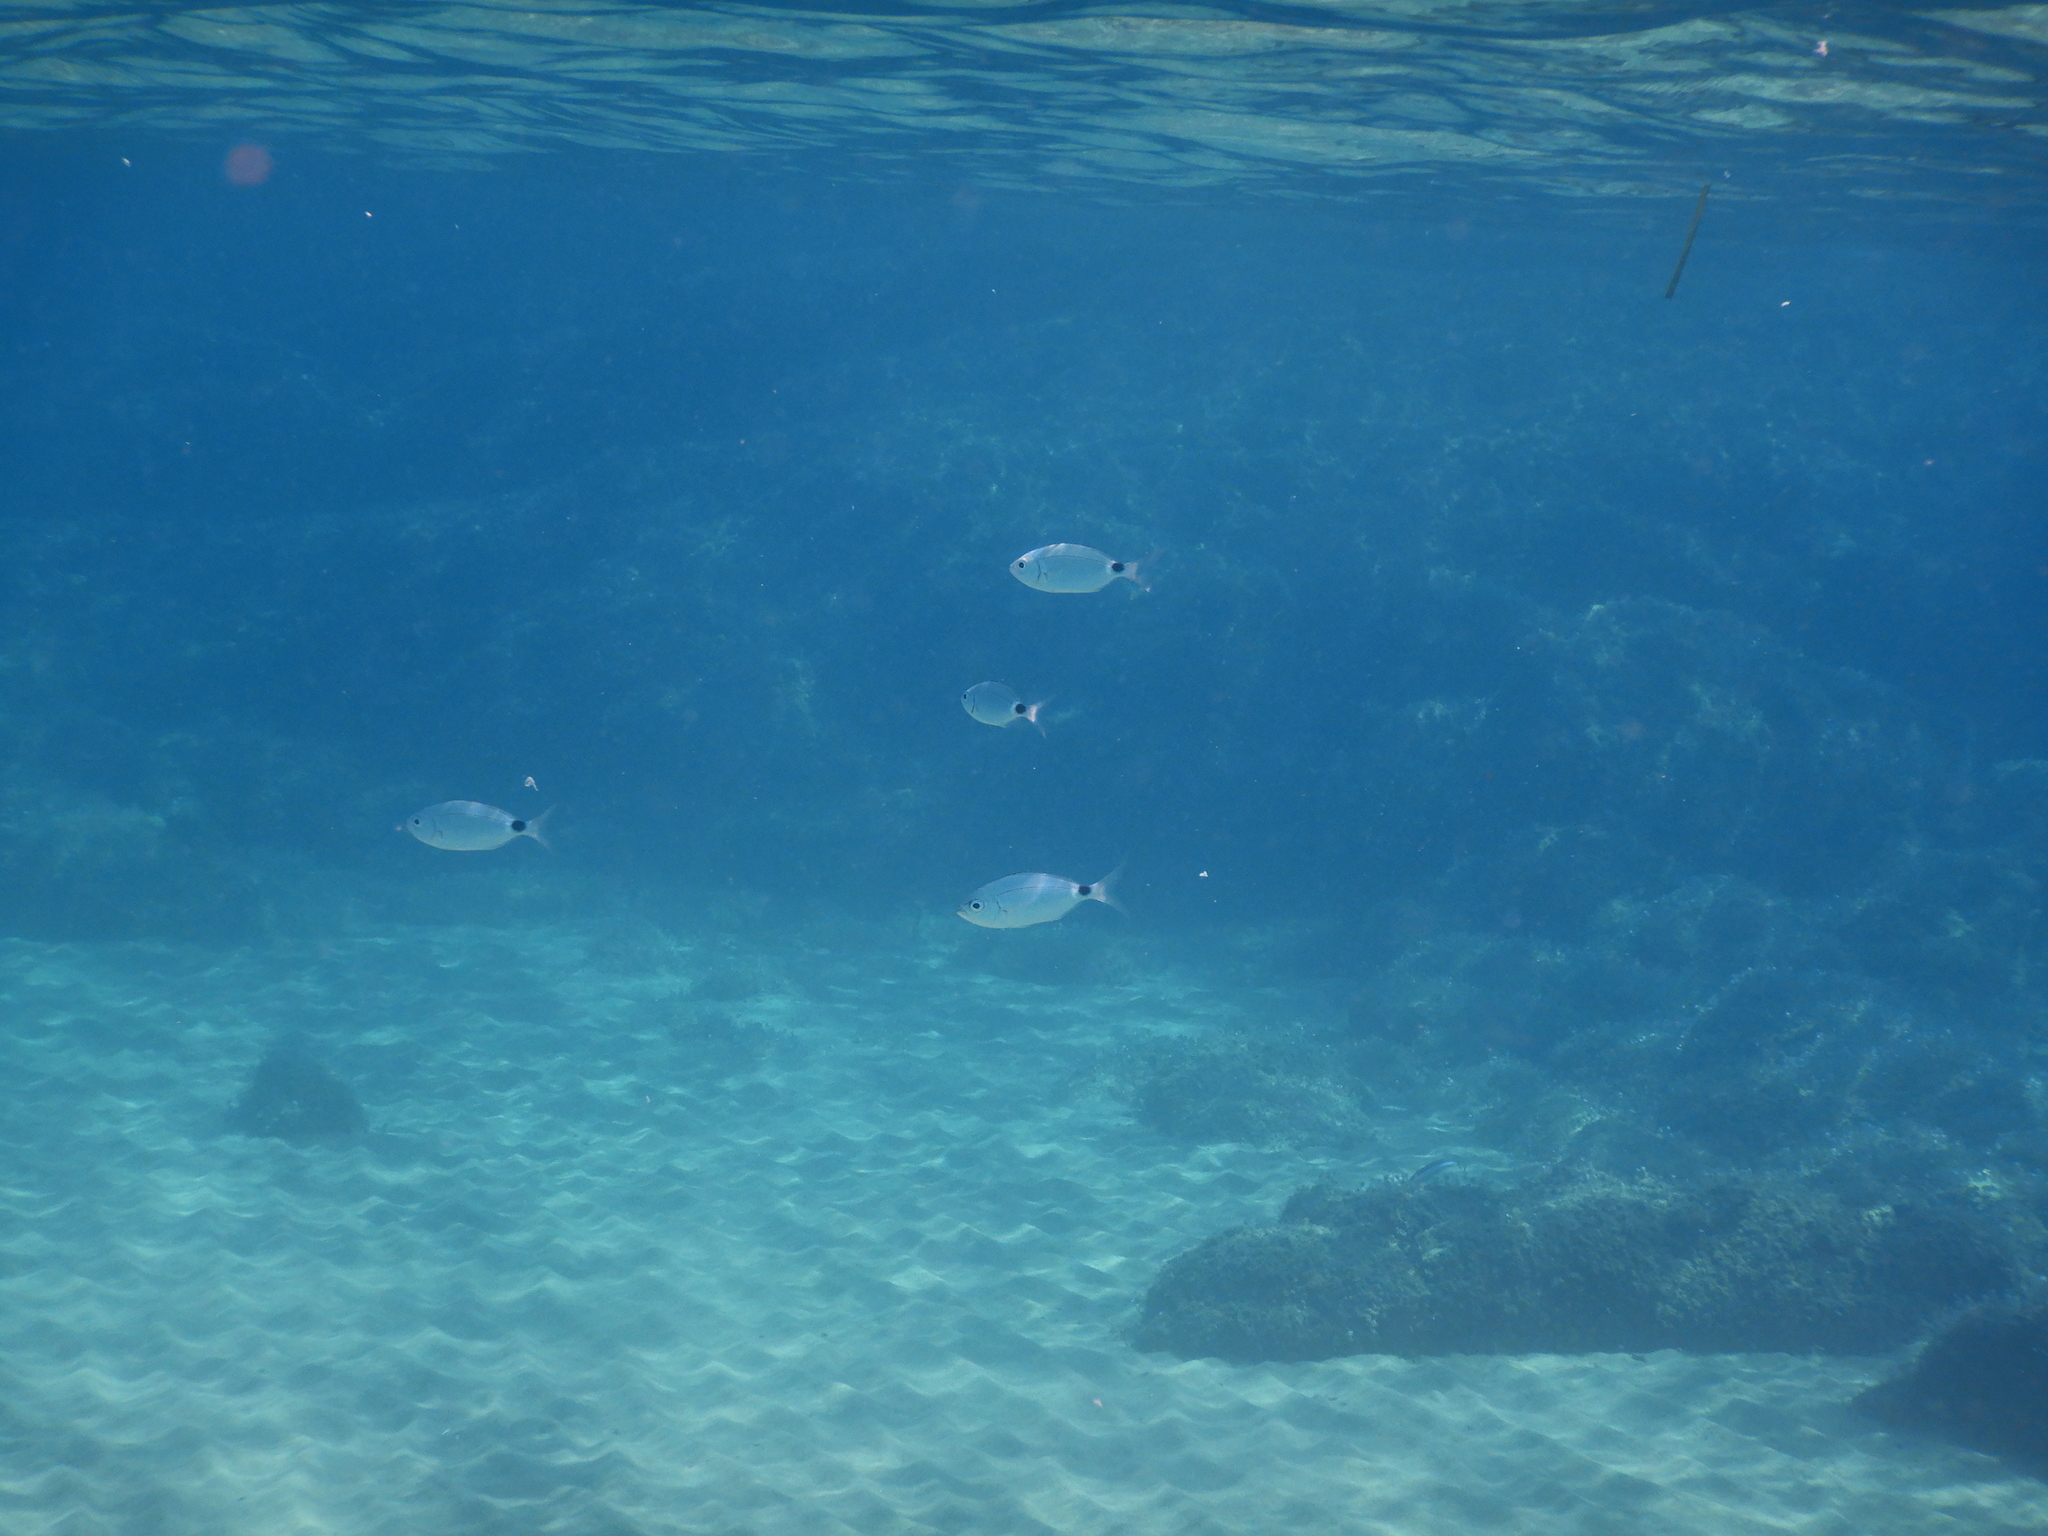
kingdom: Animalia
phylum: Chordata
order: Perciformes
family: Sparidae
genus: Oblada
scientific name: Oblada melanura
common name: Saddled seabream
